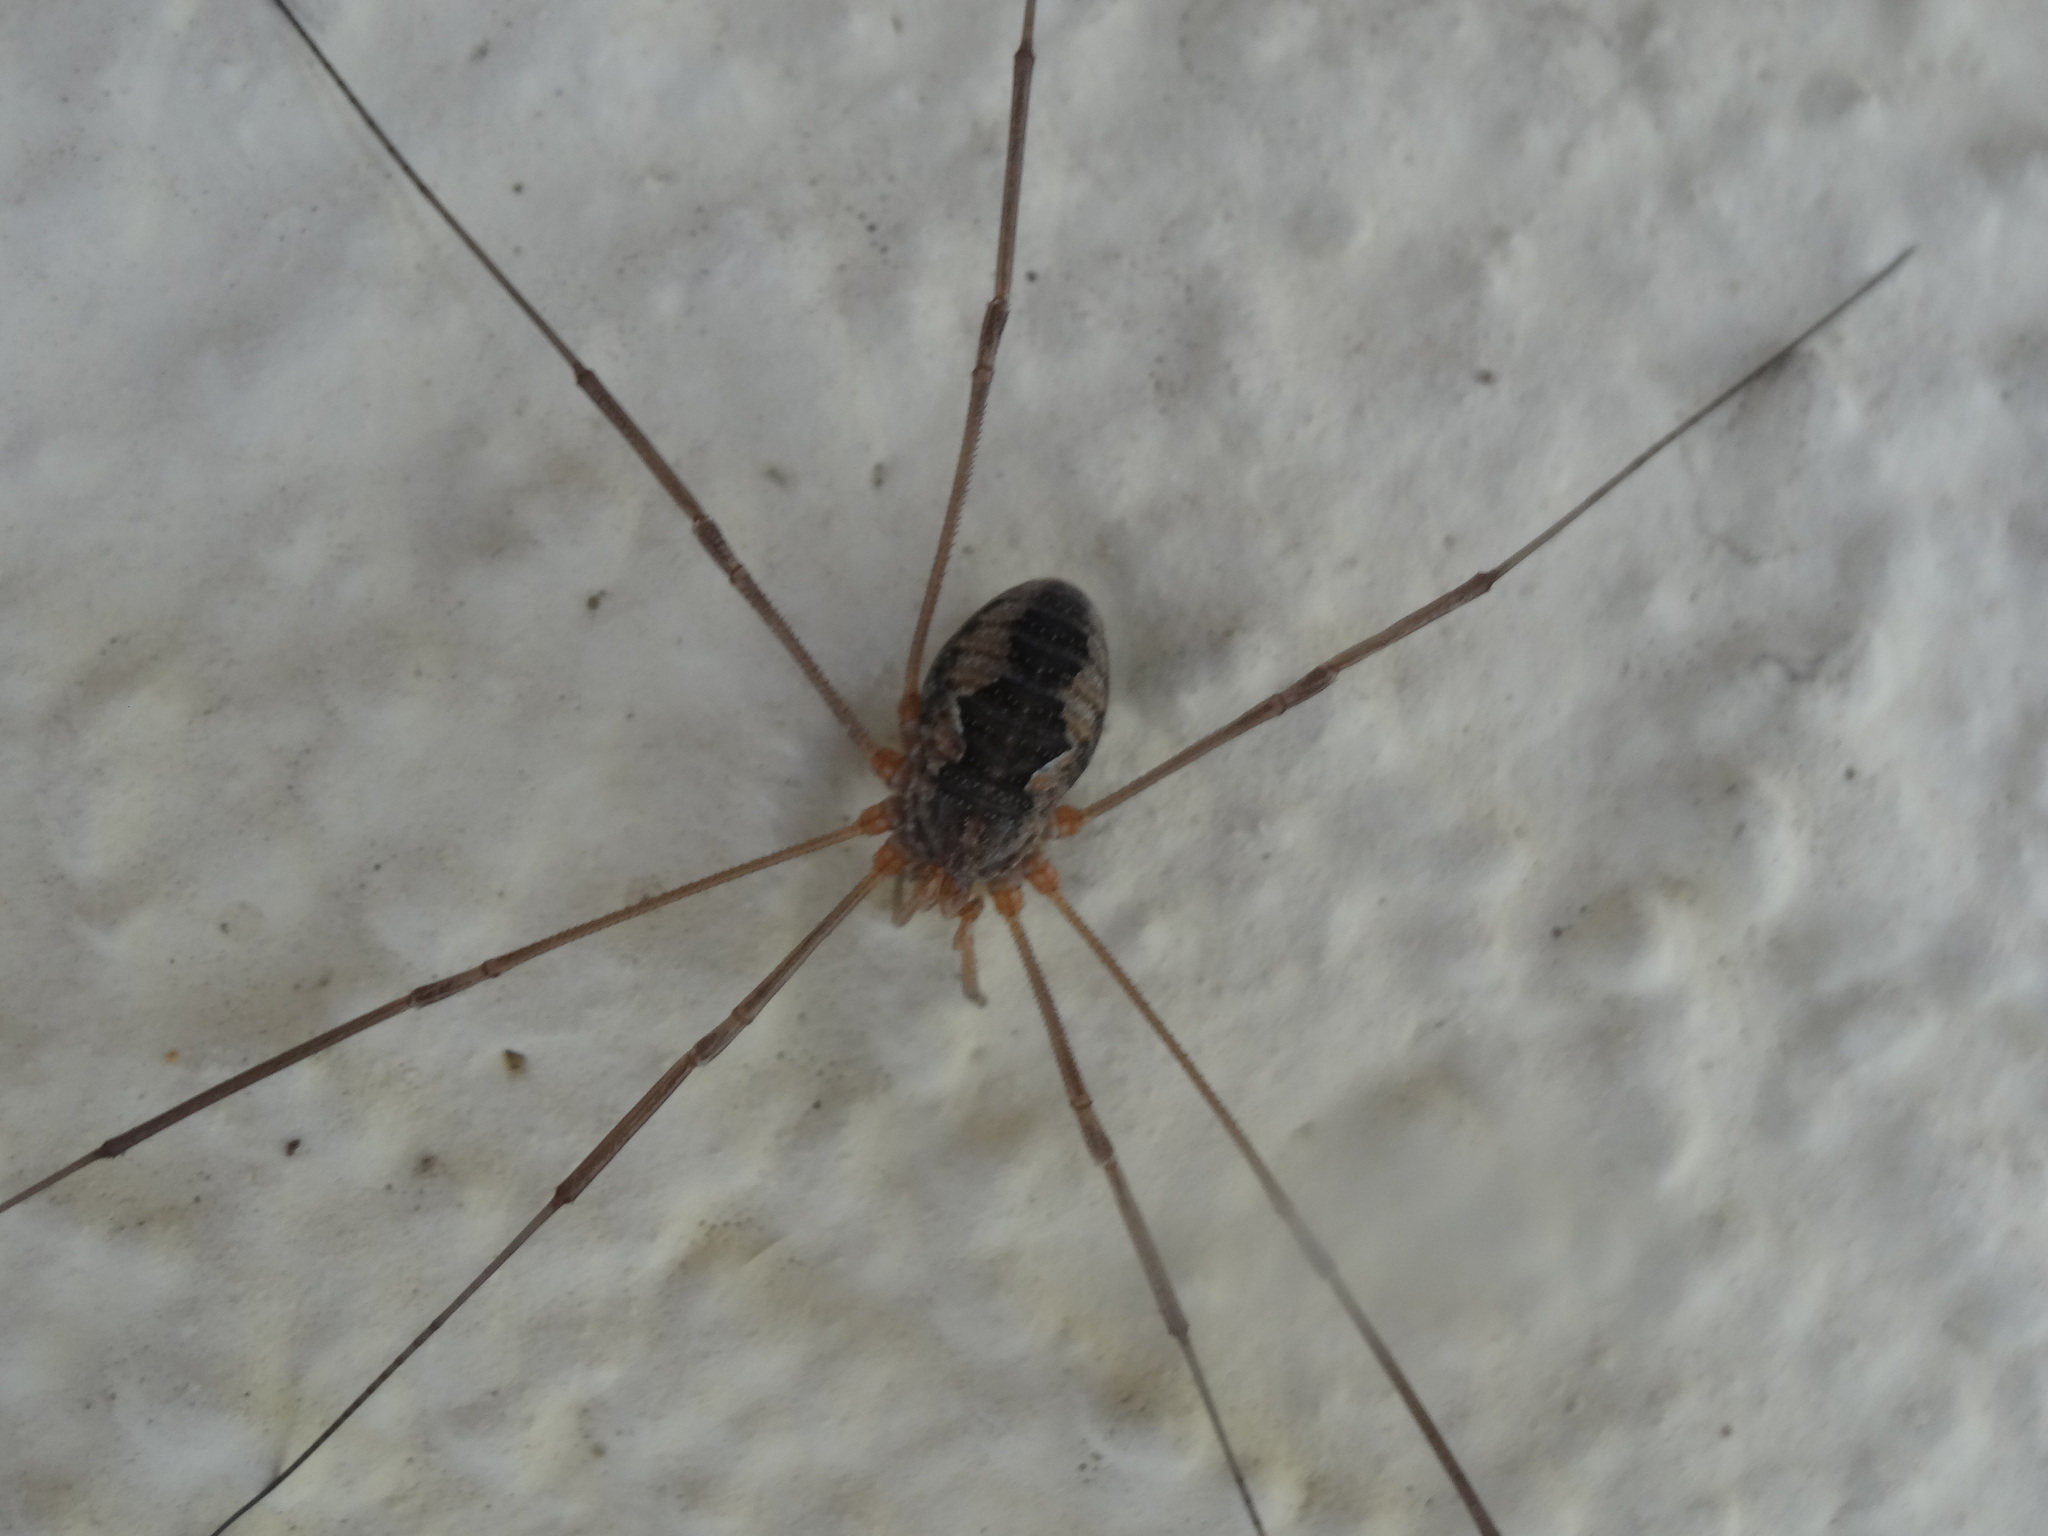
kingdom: Animalia
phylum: Arthropoda
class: Arachnida
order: Opiliones
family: Phalangiidae
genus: Phalangium
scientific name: Phalangium opilio
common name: Daddy longleg
